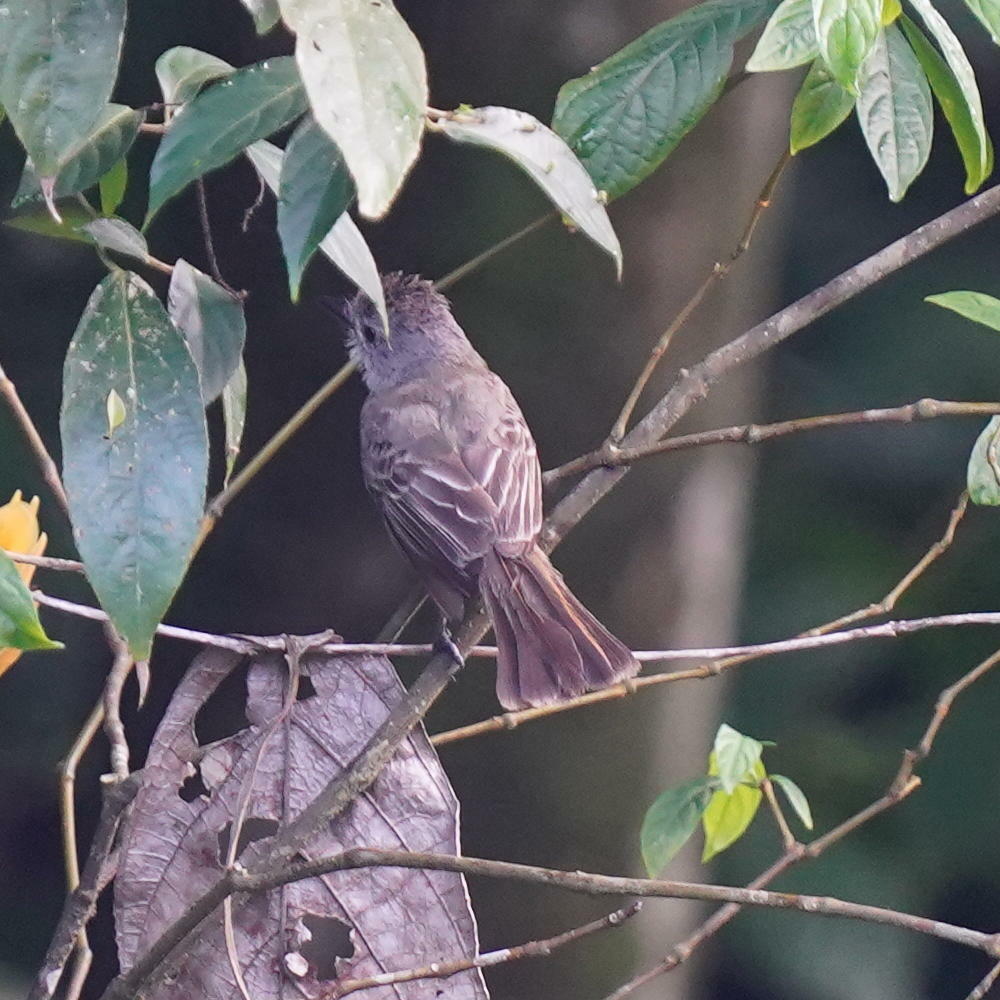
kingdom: Animalia
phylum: Chordata
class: Aves
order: Passeriformes
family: Tyrannidae
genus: Myiarchus
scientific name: Myiarchus panamensis
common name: Panama flycatcher
